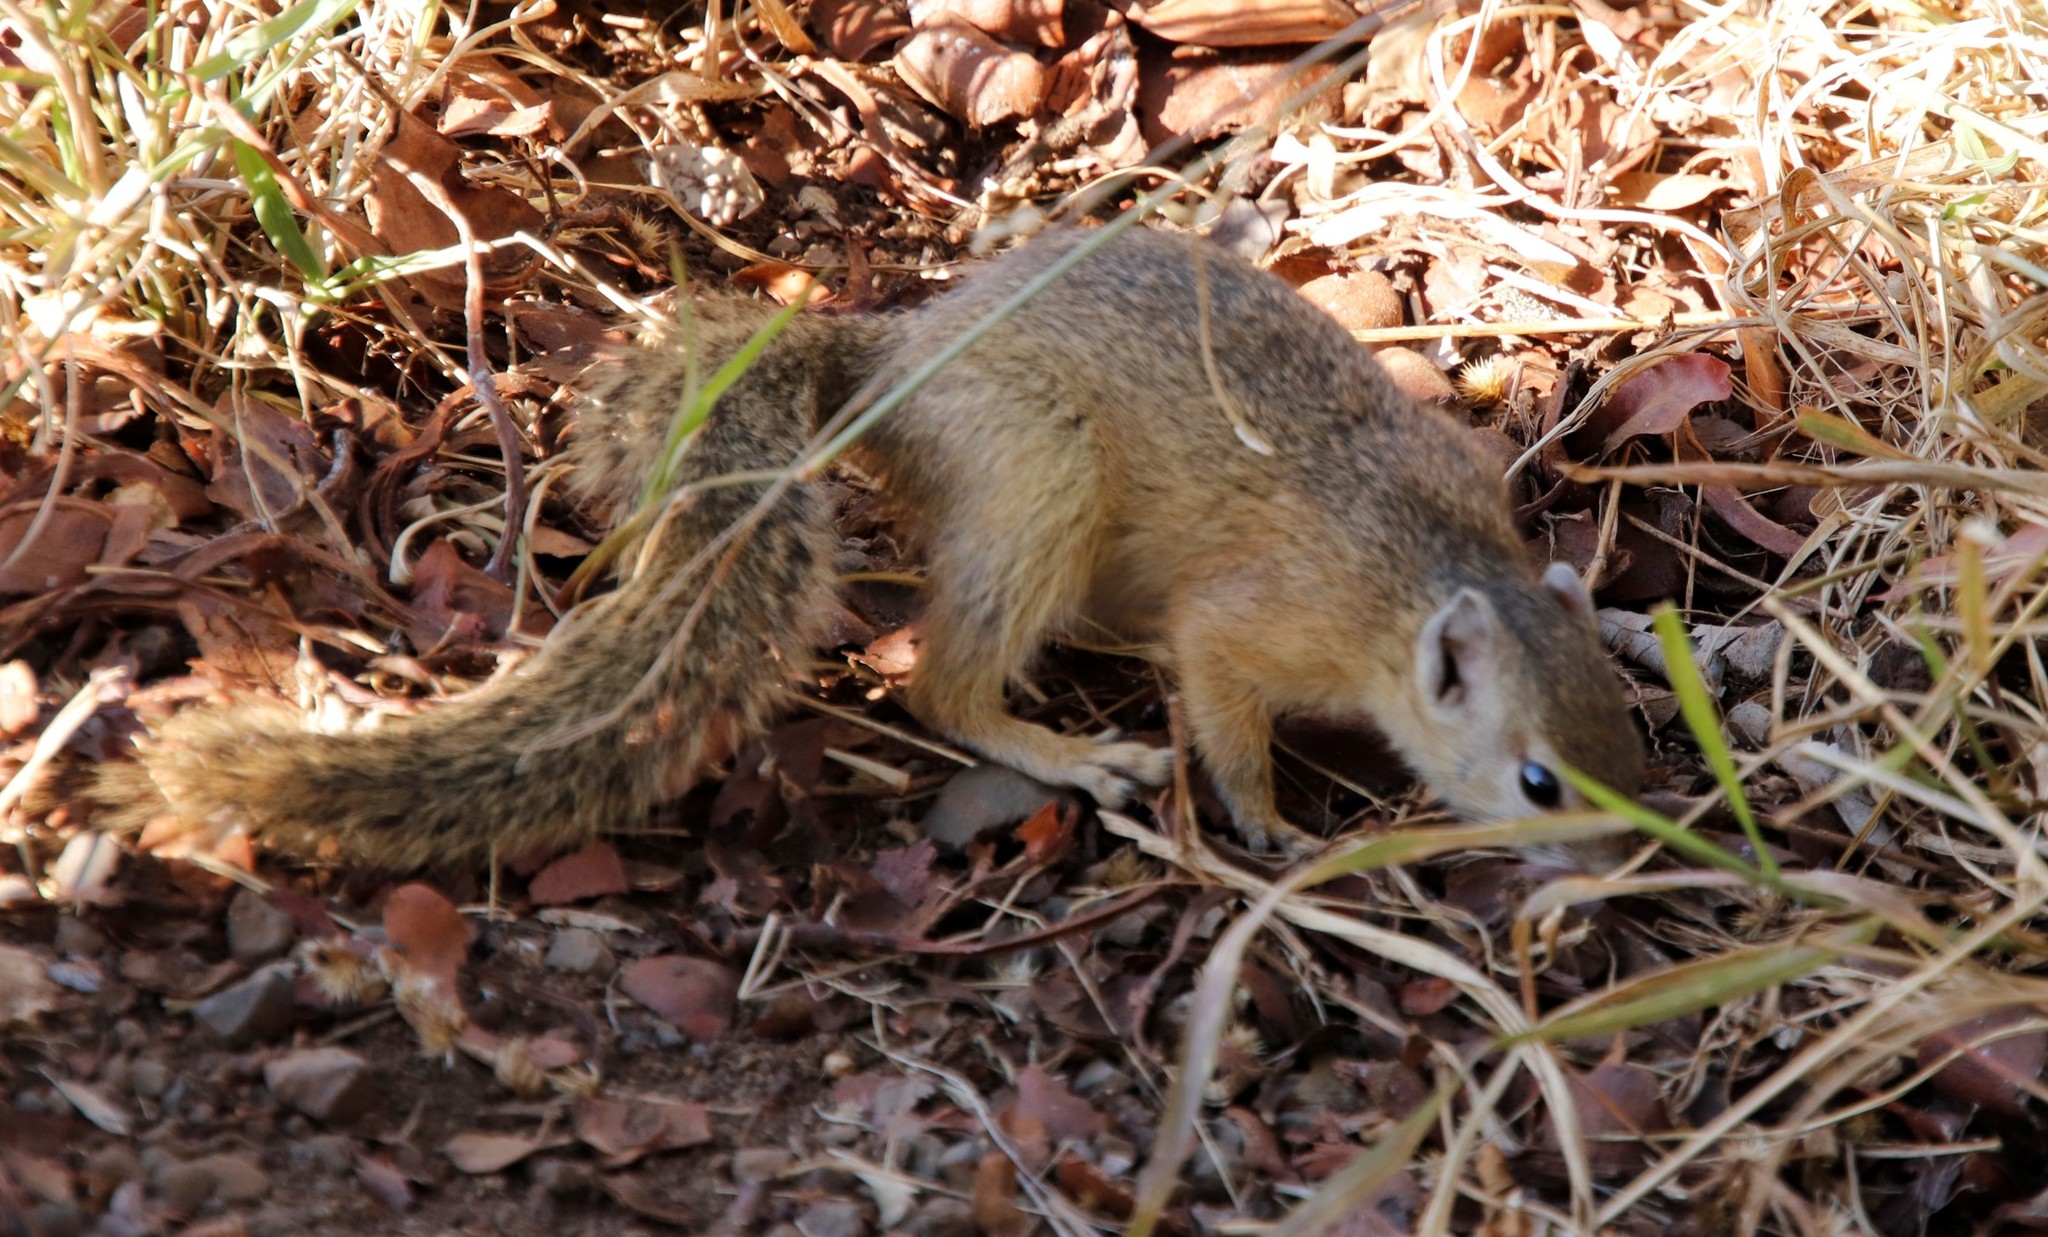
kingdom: Animalia
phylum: Chordata
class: Mammalia
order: Rodentia
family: Sciuridae
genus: Paraxerus
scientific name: Paraxerus cepapi
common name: Smith's bush squirrel
